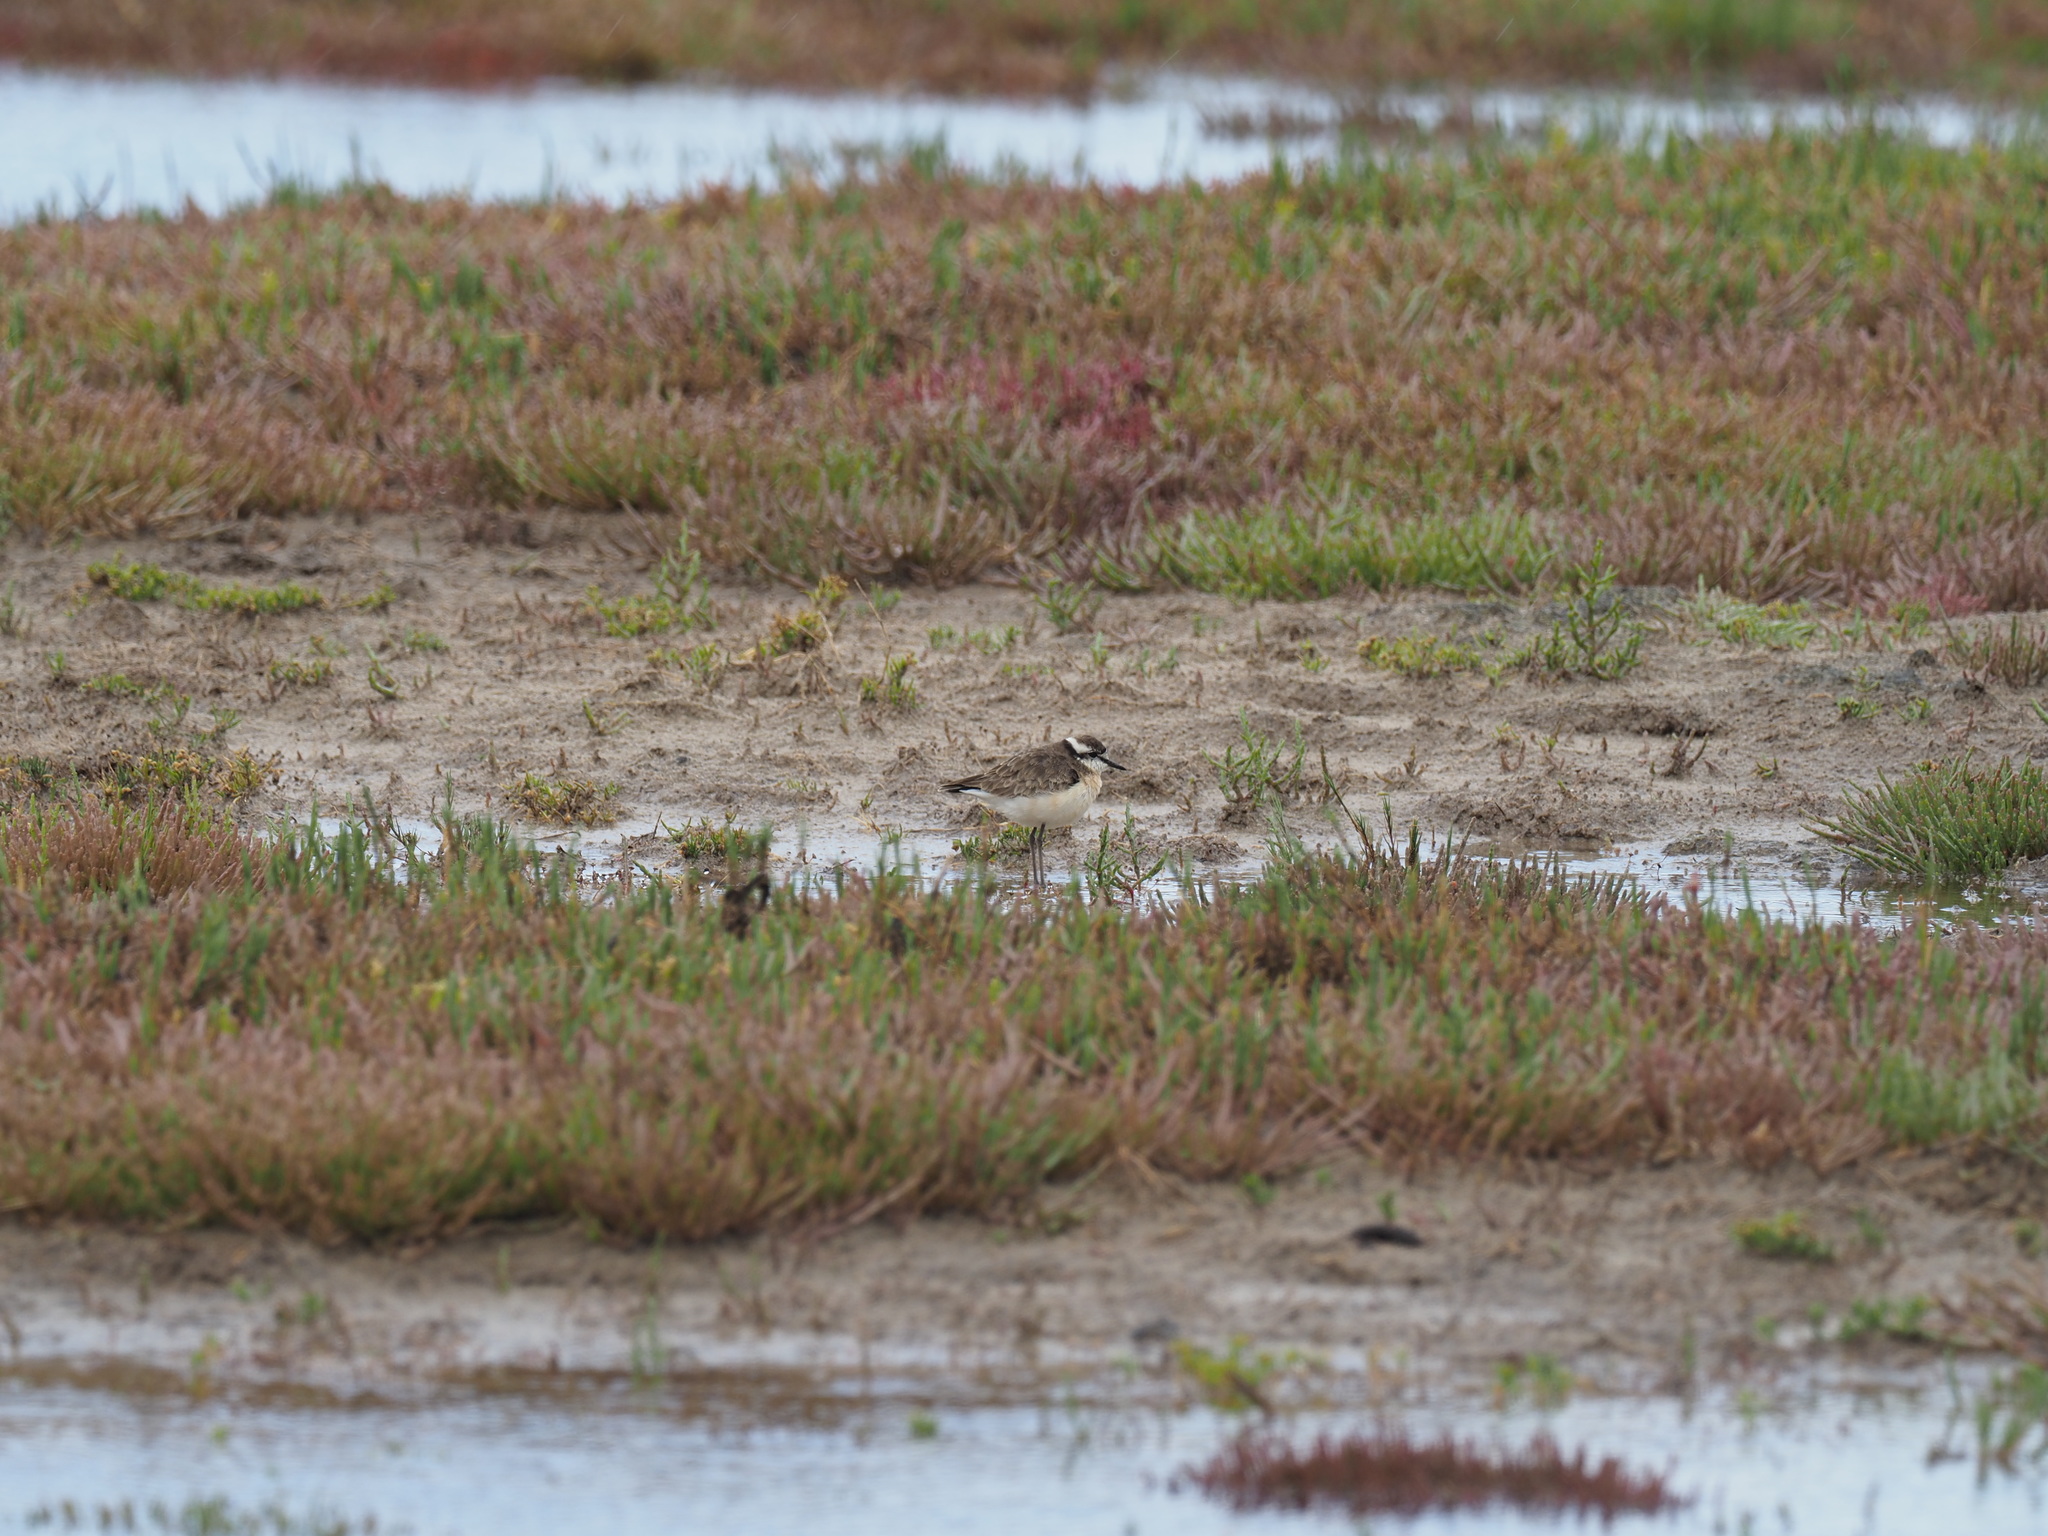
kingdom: Animalia
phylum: Chordata
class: Aves
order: Charadriiformes
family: Charadriidae
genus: Anarhynchus
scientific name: Anarhynchus
